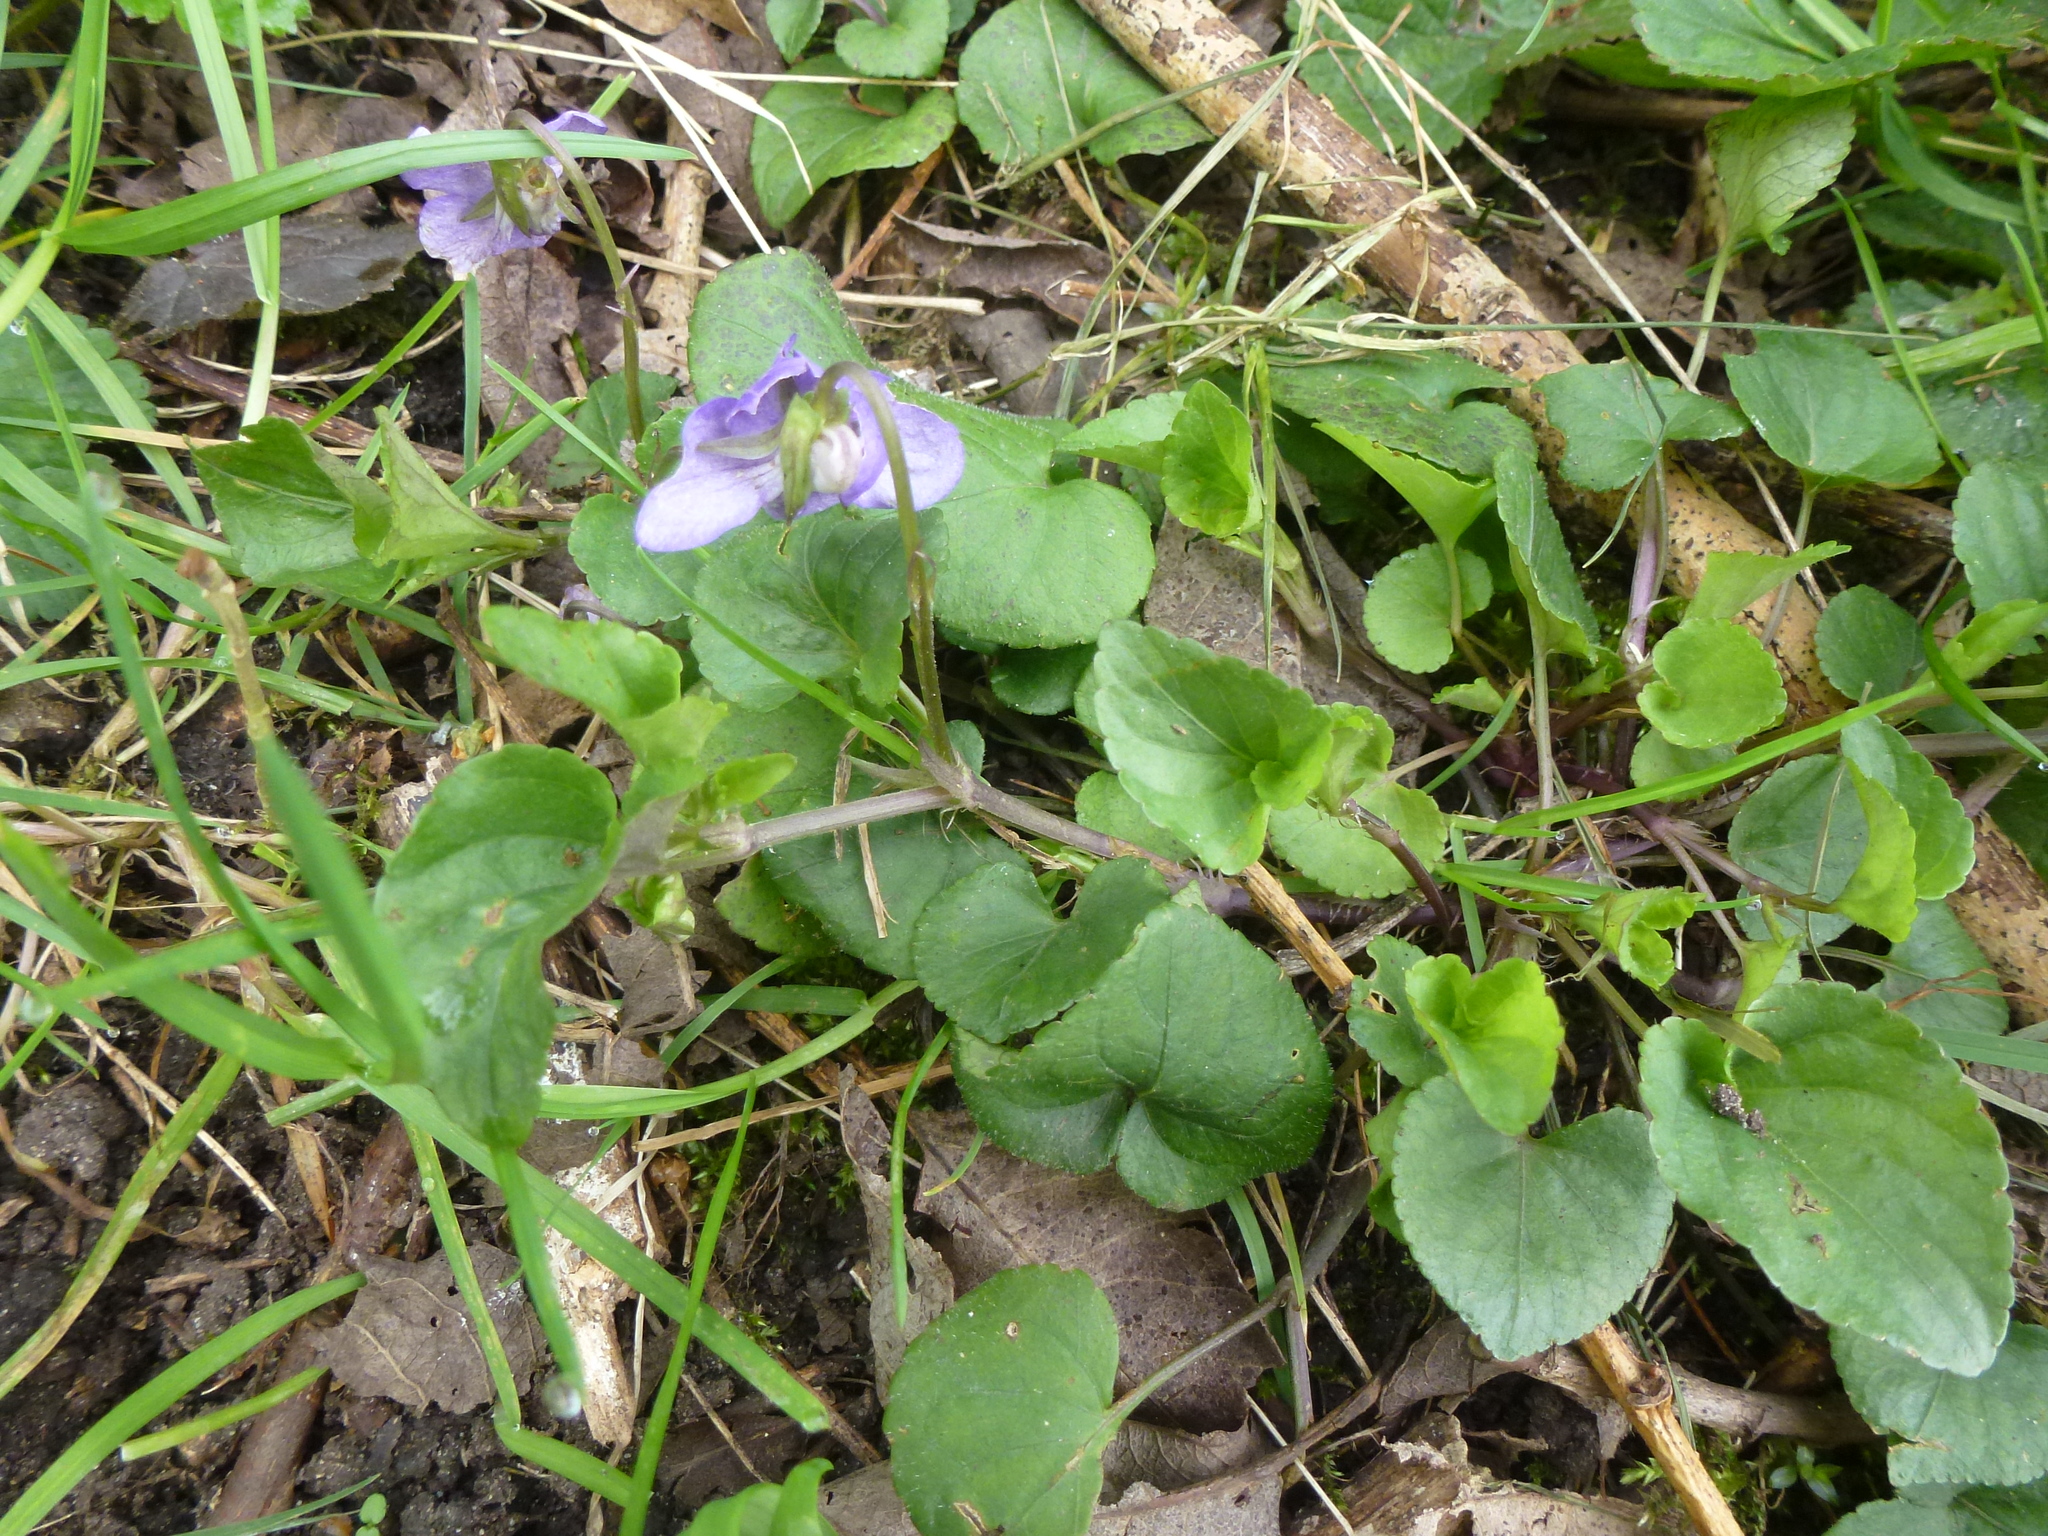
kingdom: Plantae
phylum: Tracheophyta
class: Magnoliopsida
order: Malpighiales
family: Violaceae
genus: Viola
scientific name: Viola riviniana
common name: Common dog-violet
